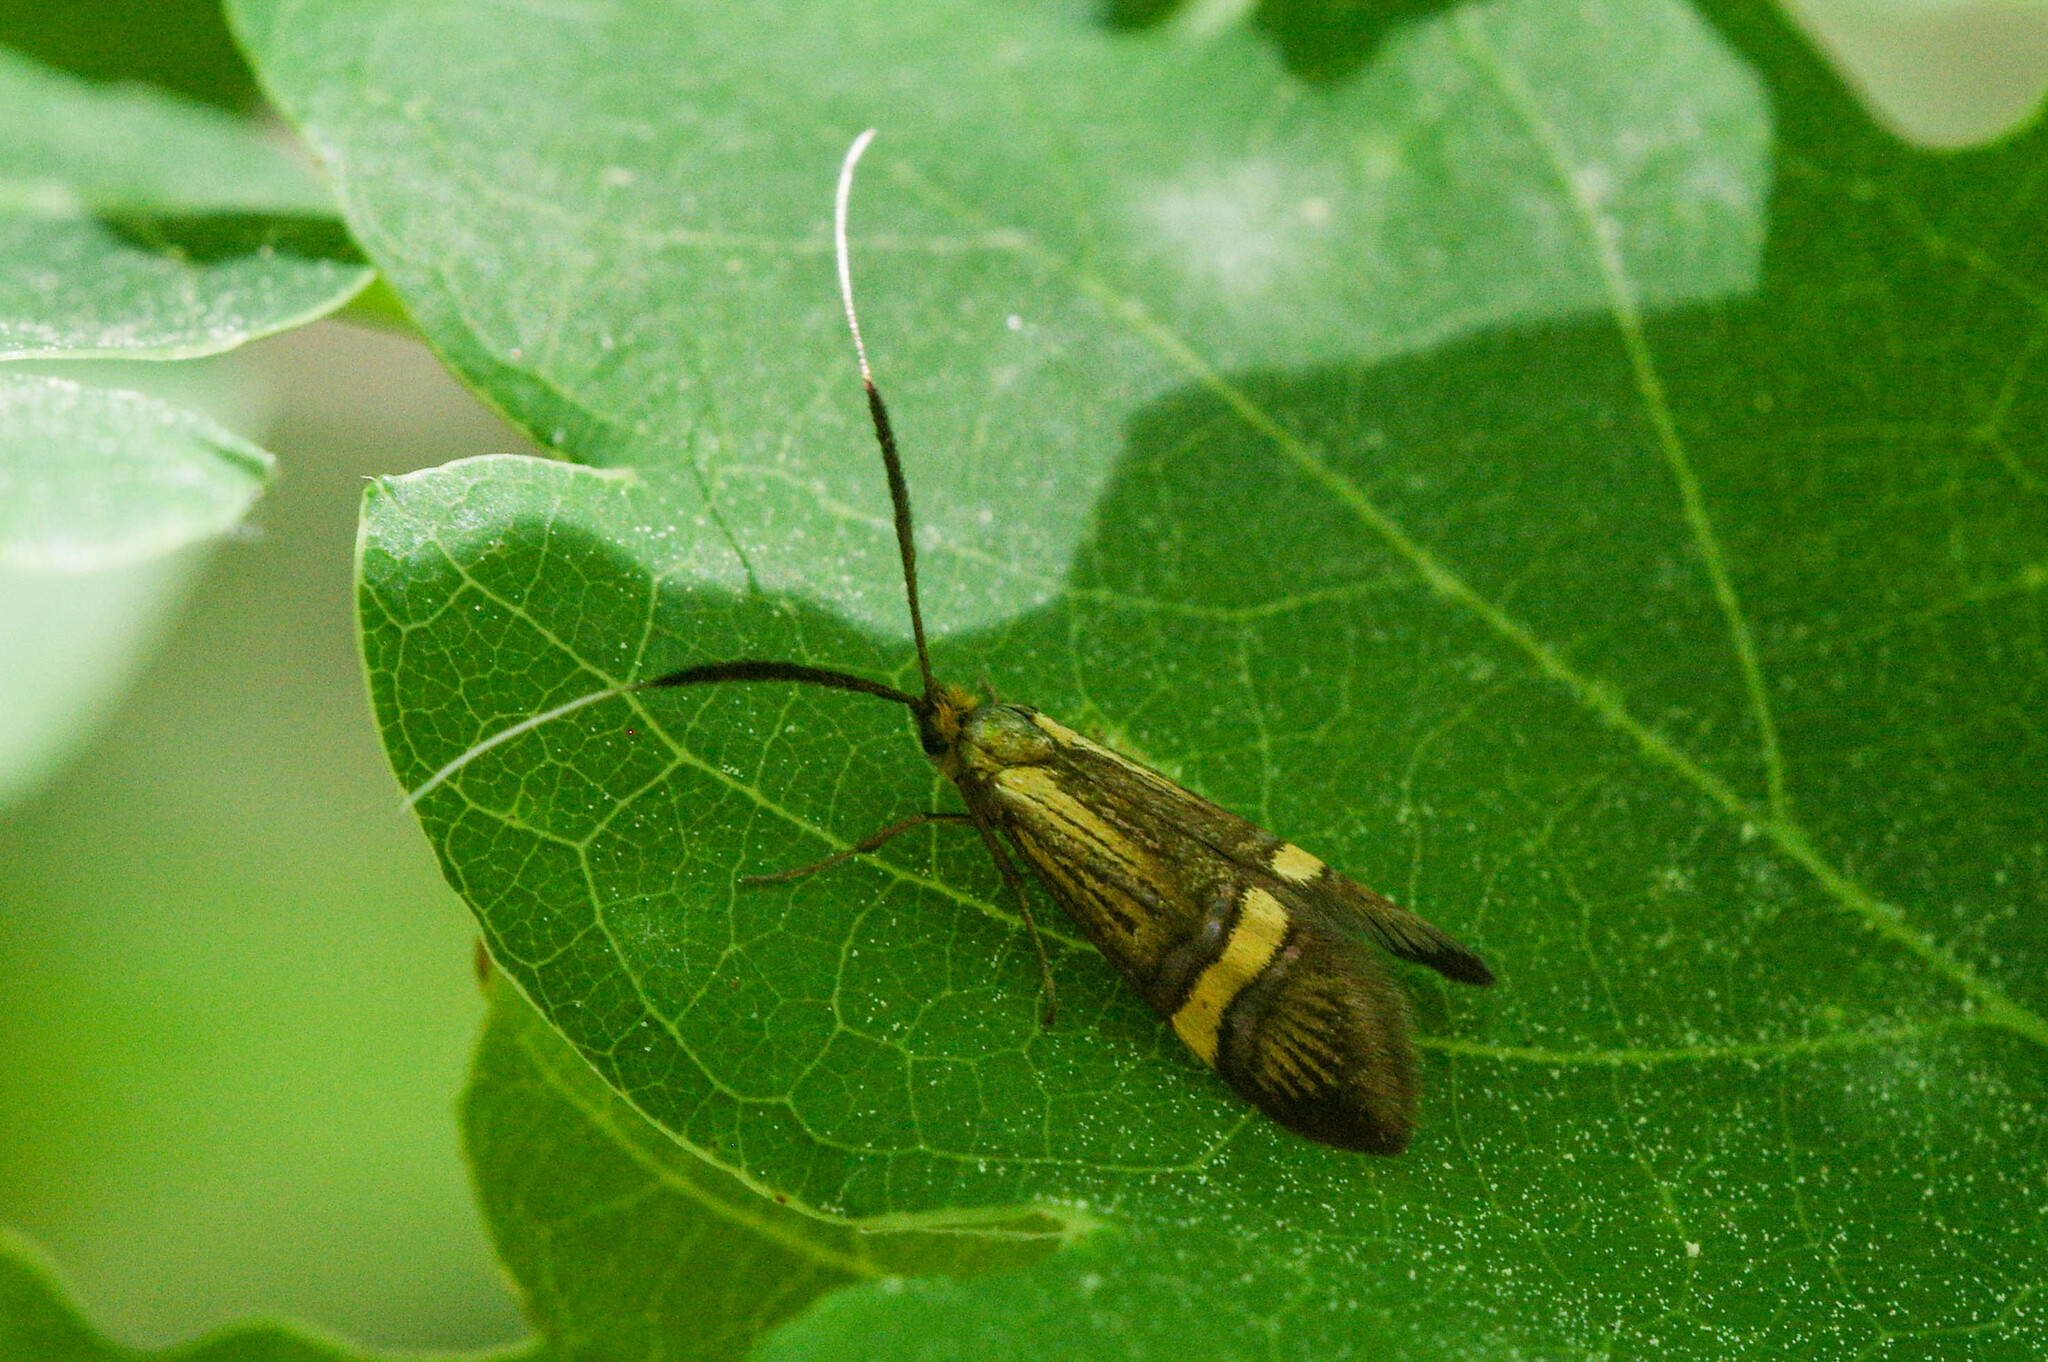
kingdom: Animalia
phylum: Arthropoda
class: Insecta
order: Lepidoptera
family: Adelidae
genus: Nemophora
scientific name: Nemophora degeerella
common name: Yellow-barred long-horn
